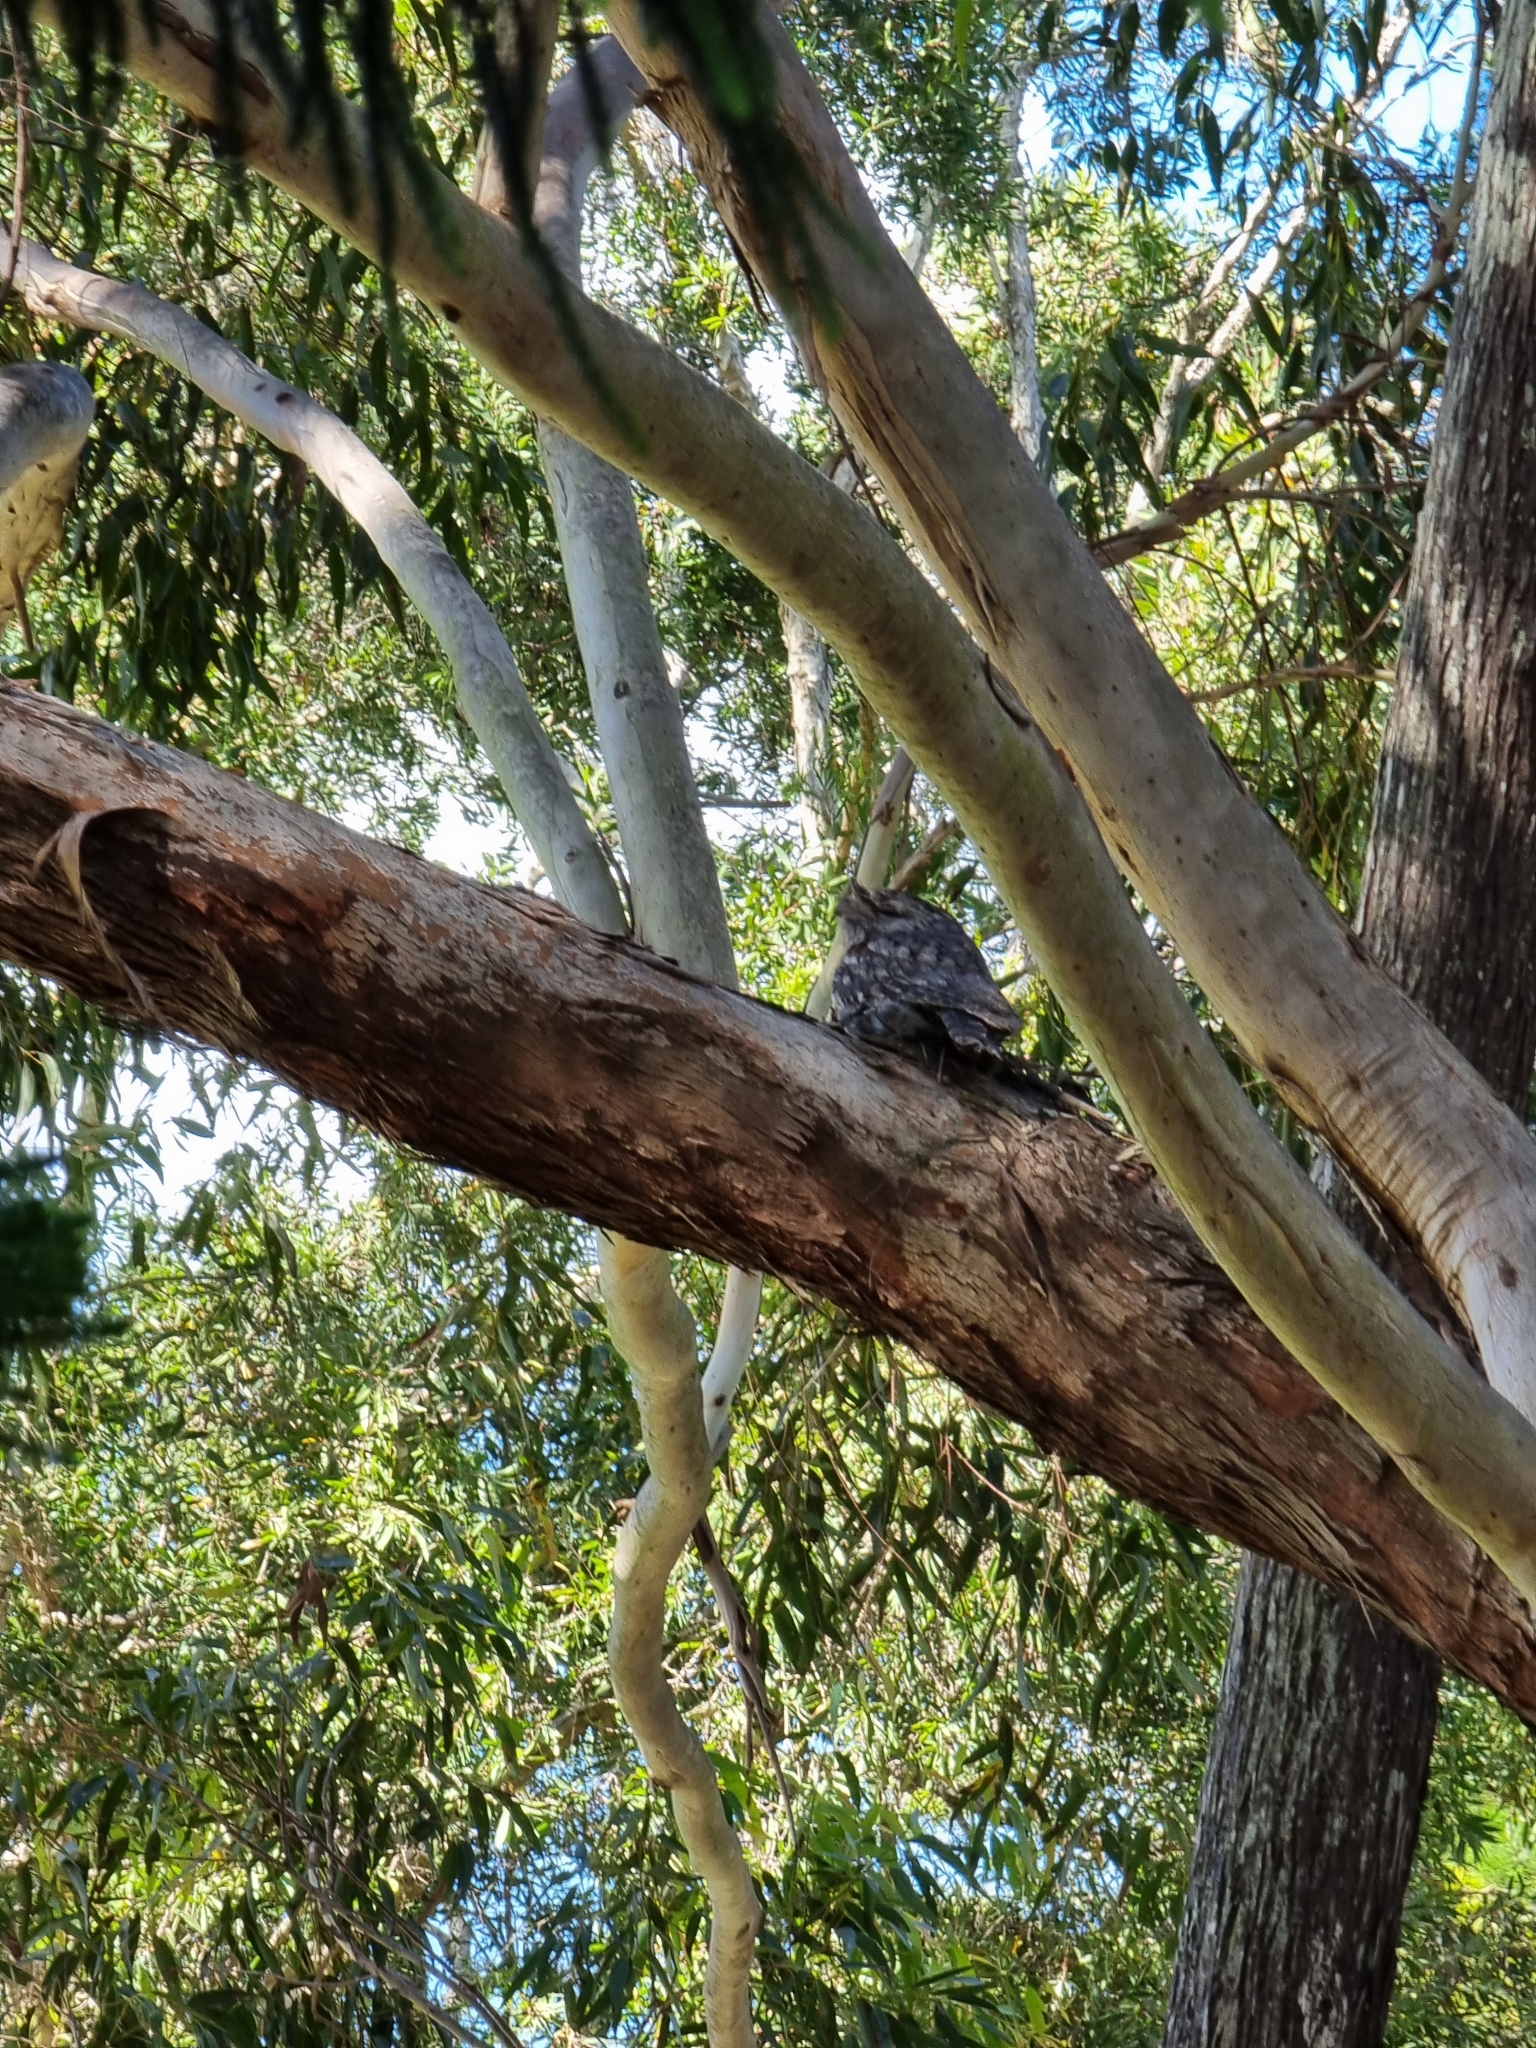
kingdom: Animalia
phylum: Chordata
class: Aves
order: Caprimulgiformes
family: Podargidae
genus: Podargus
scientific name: Podargus strigoides
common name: Tawny frogmouth
